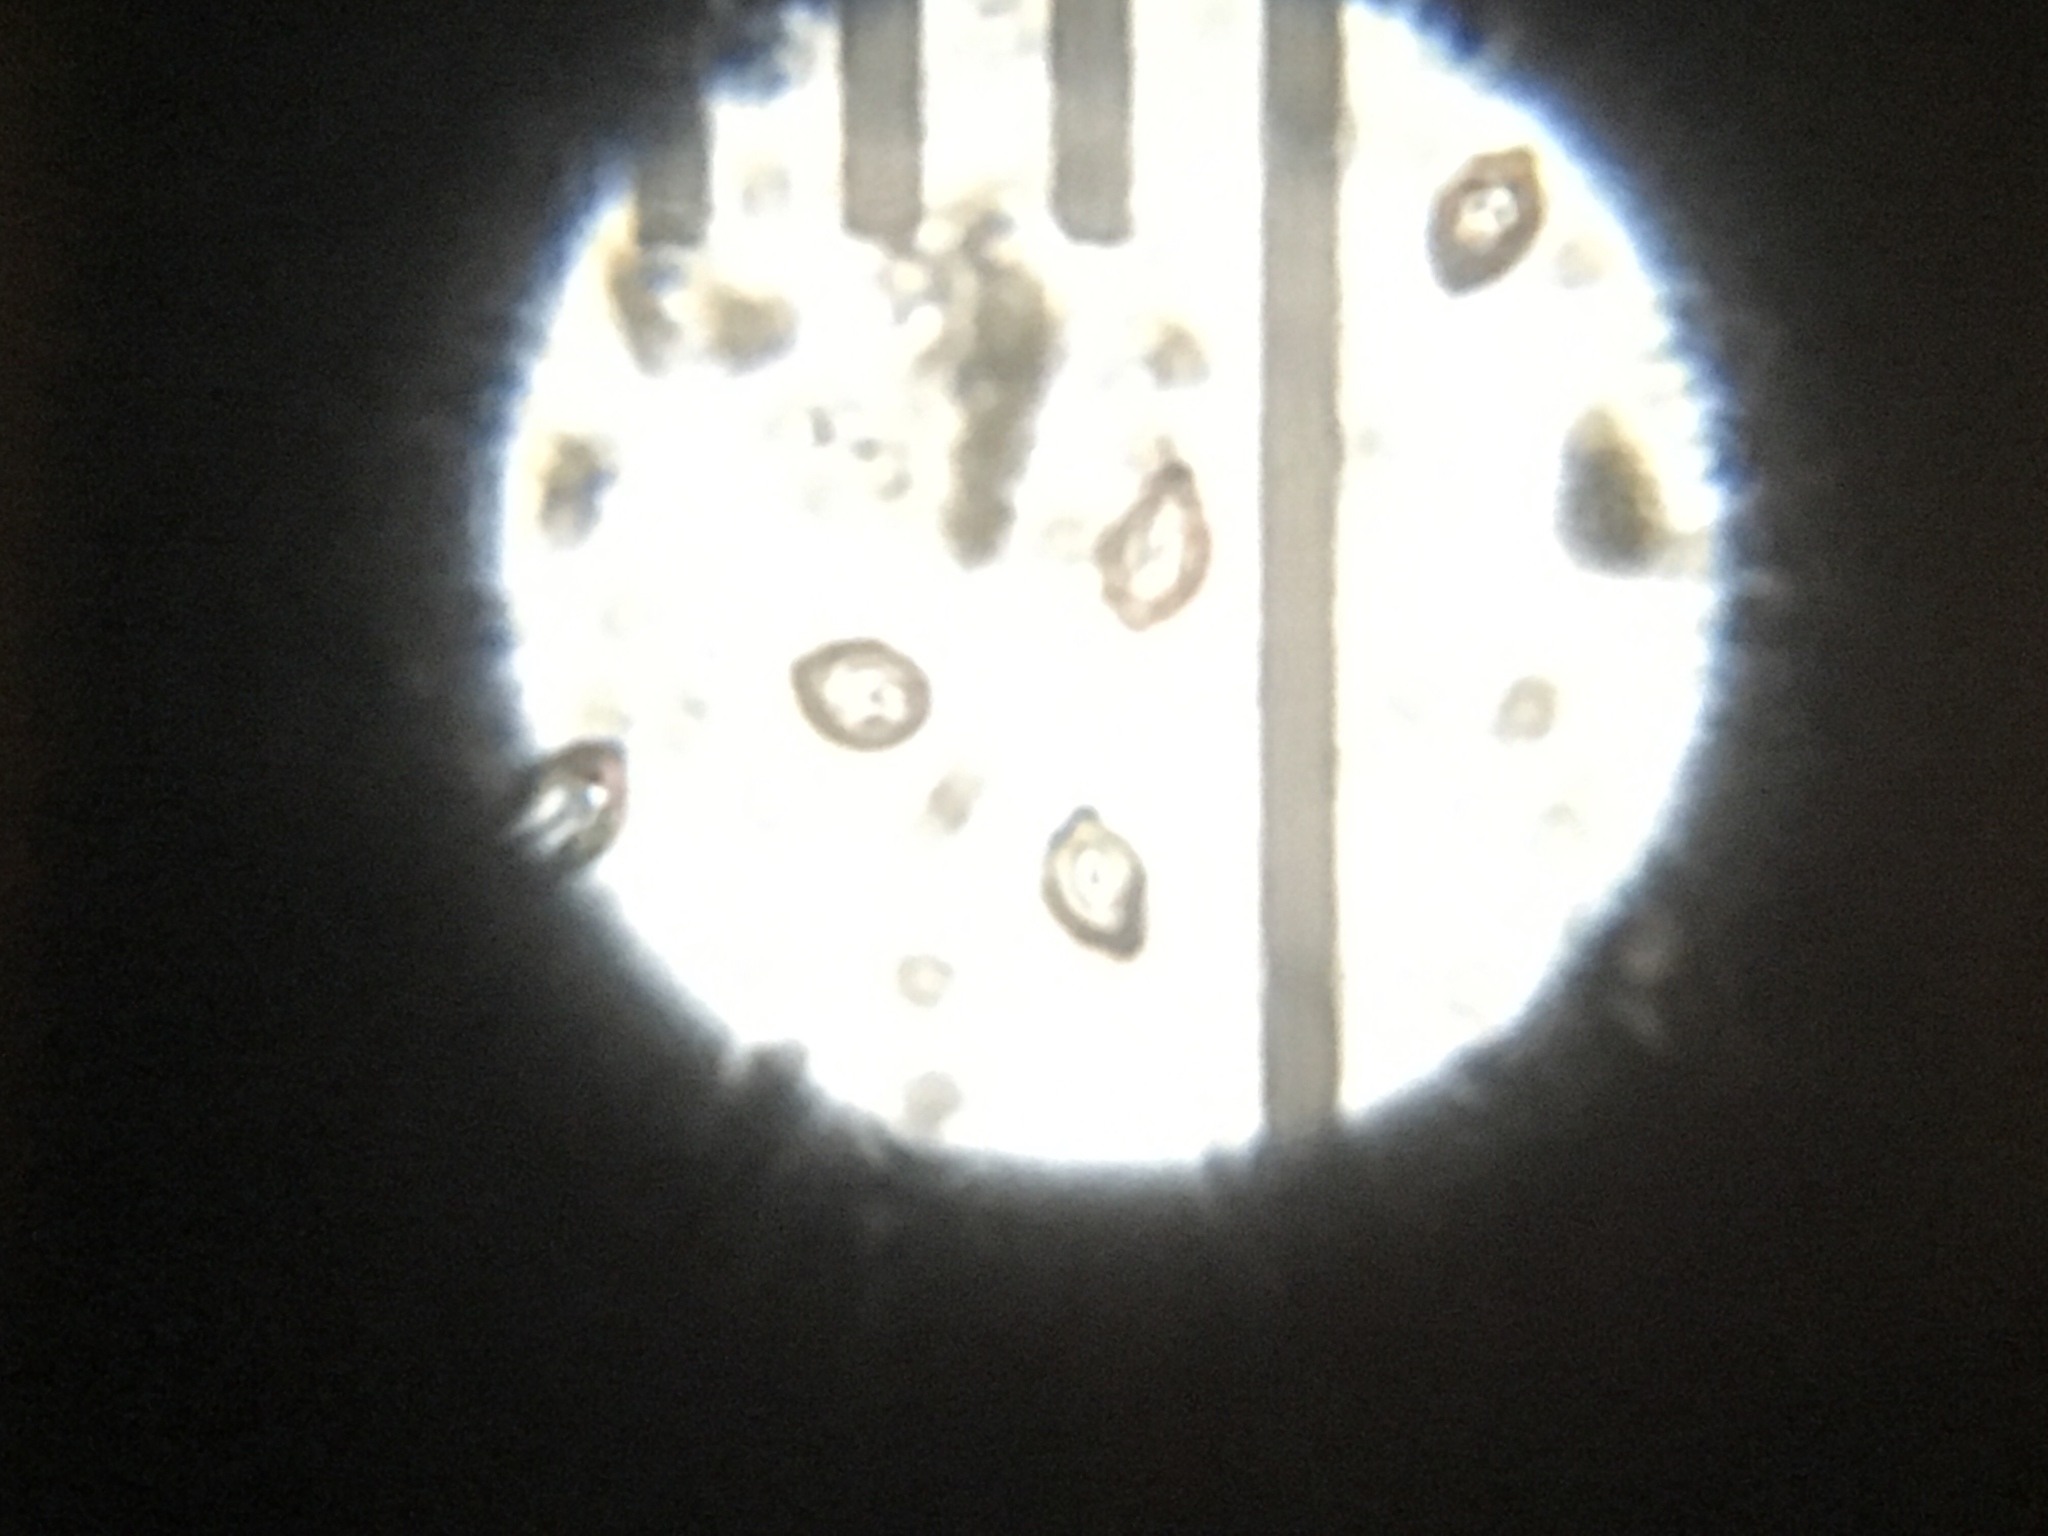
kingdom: Fungi
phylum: Basidiomycota
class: Agaricomycetes
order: Agaricales
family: Physalacriaceae
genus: Cyptotrama
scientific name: Cyptotrama asprata
